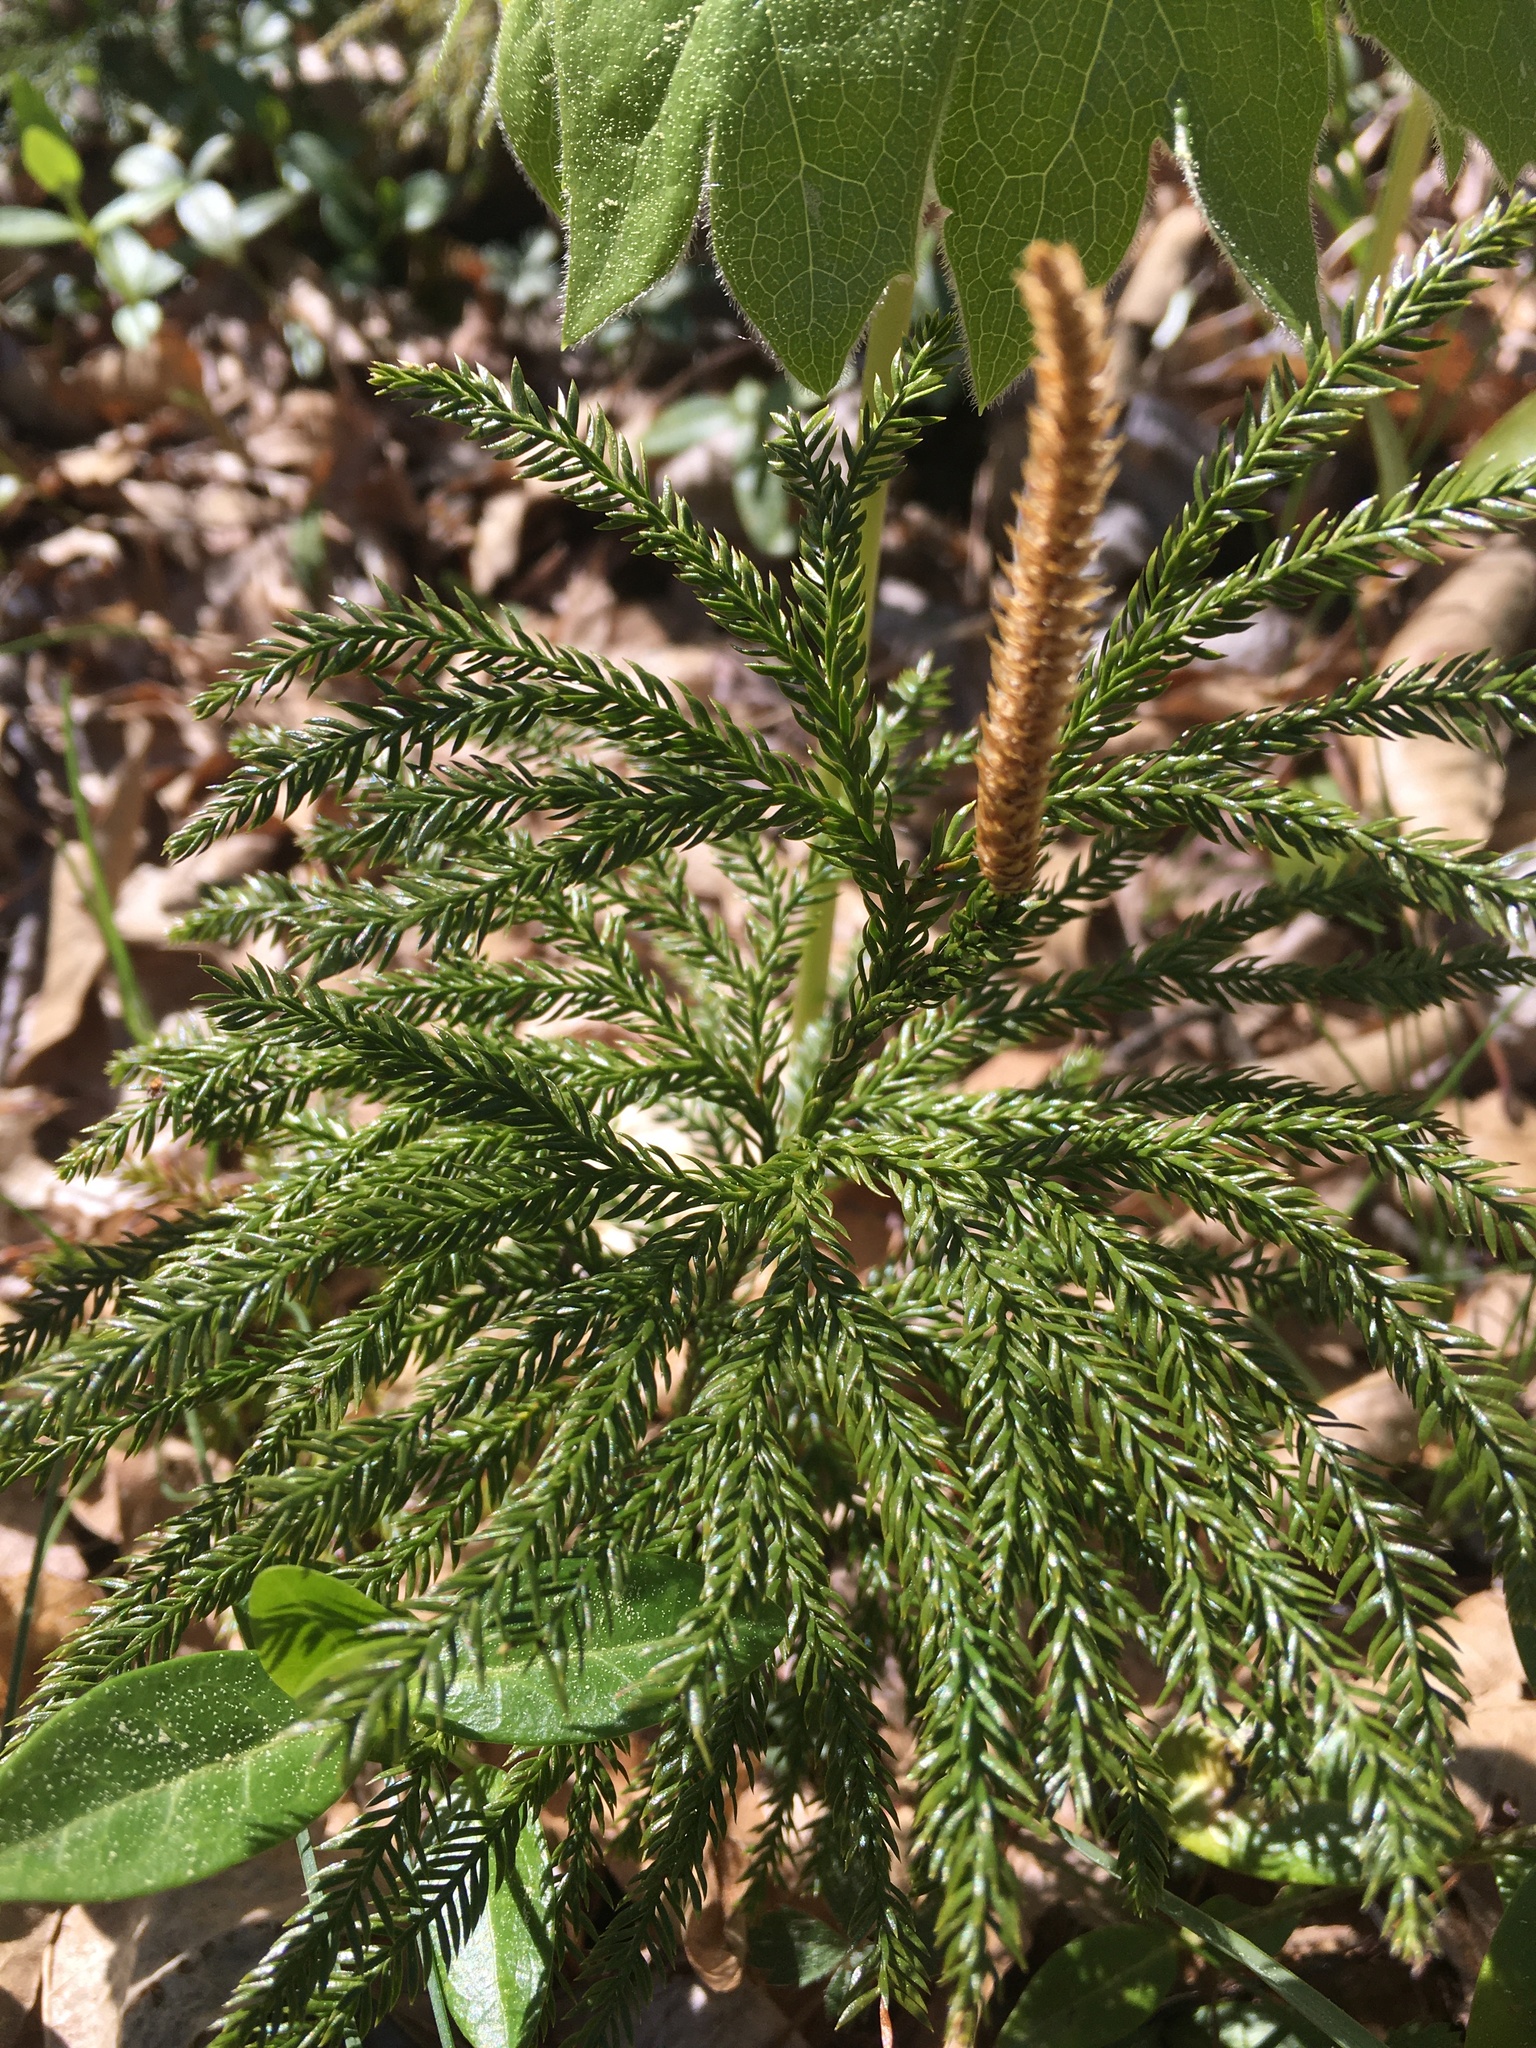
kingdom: Plantae
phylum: Tracheophyta
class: Lycopodiopsida
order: Lycopodiales
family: Lycopodiaceae
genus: Dendrolycopodium
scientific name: Dendrolycopodium obscurum
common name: Common ground-pine
